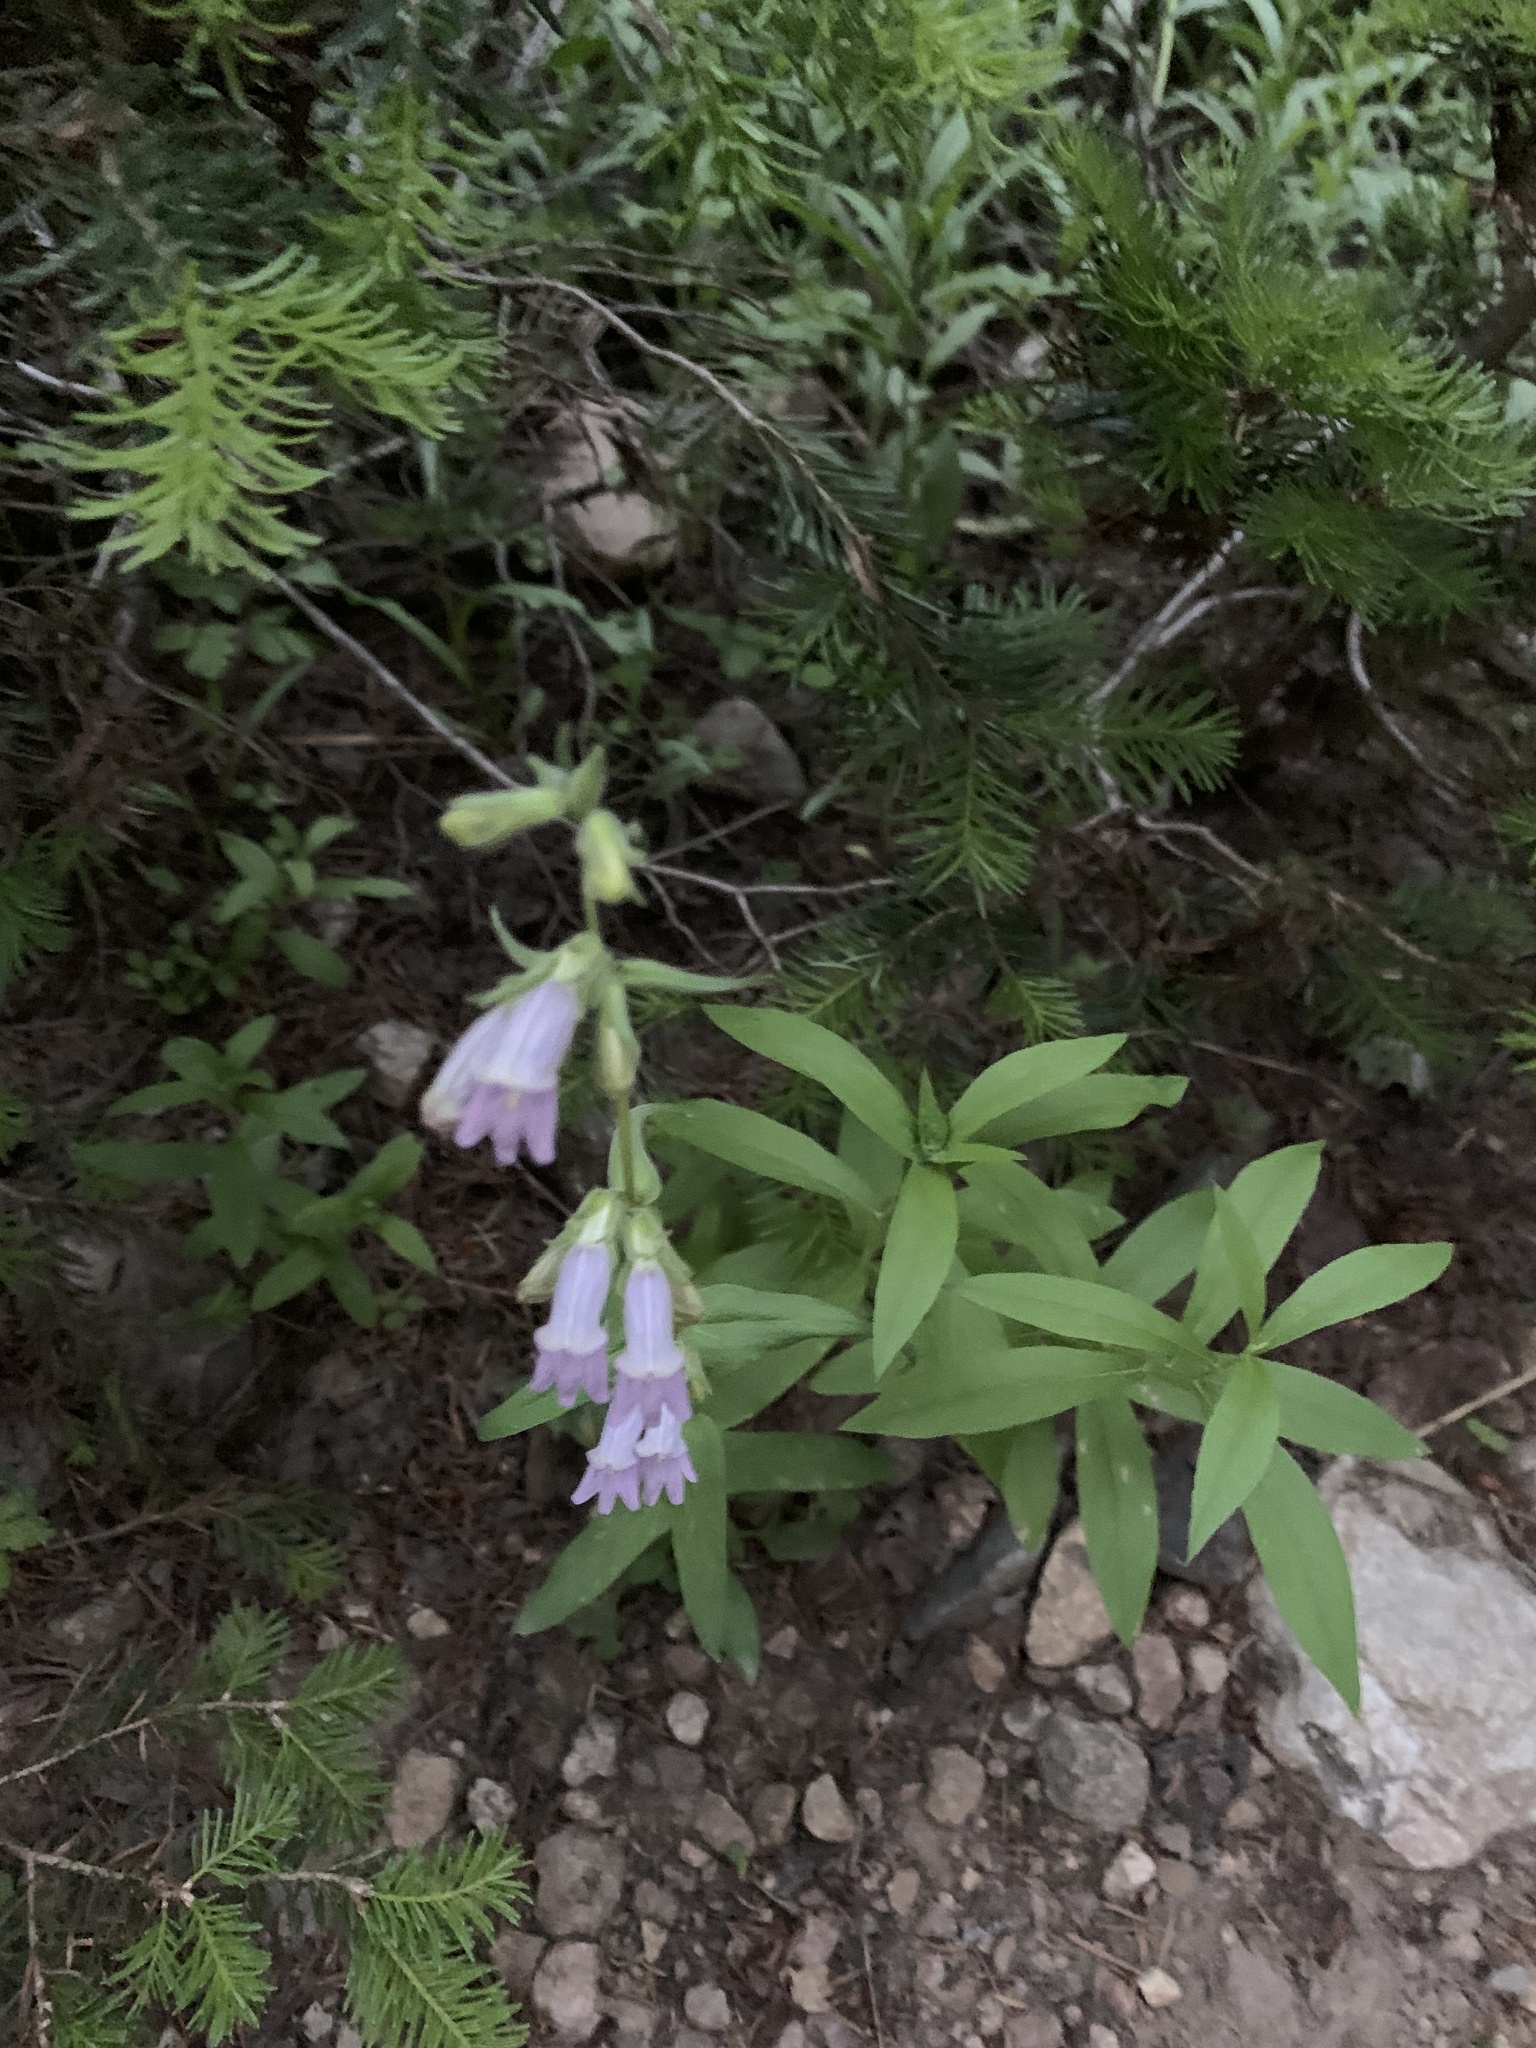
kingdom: Plantae
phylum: Tracheophyta
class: Magnoliopsida
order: Lamiales
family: Plantaginaceae
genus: Penstemon
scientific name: Penstemon whippleanus
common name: Whipple's penstemon
